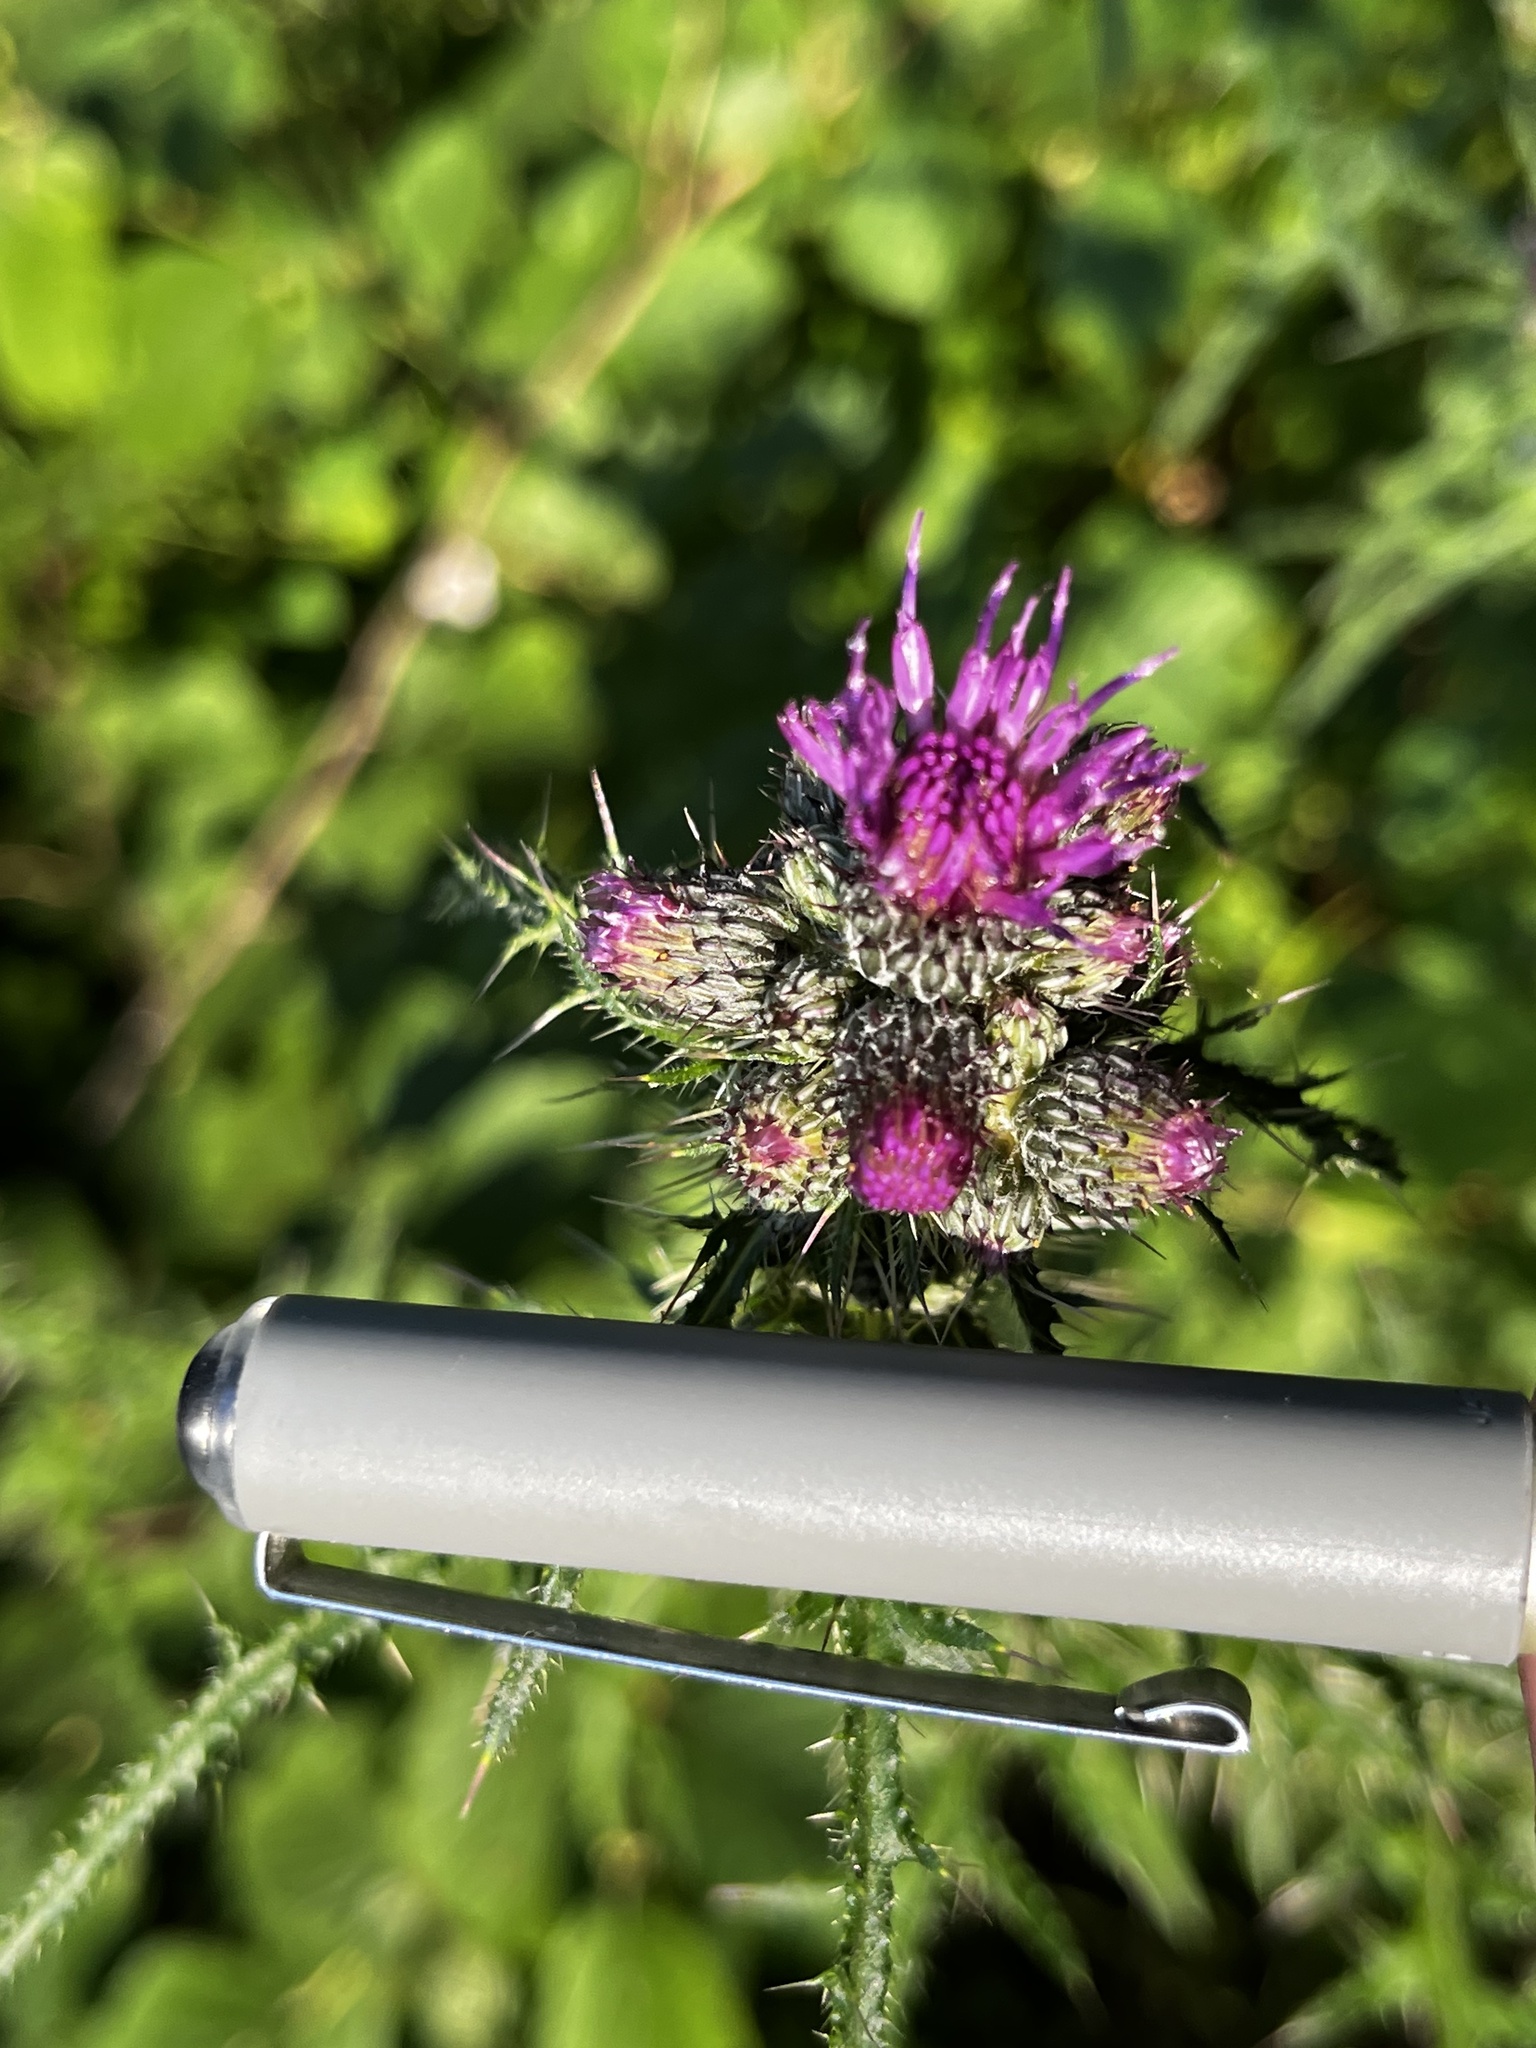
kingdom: Plantae
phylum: Tracheophyta
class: Magnoliopsida
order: Asterales
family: Asteraceae
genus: Cirsium
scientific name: Cirsium palustre
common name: Marsh thistle
